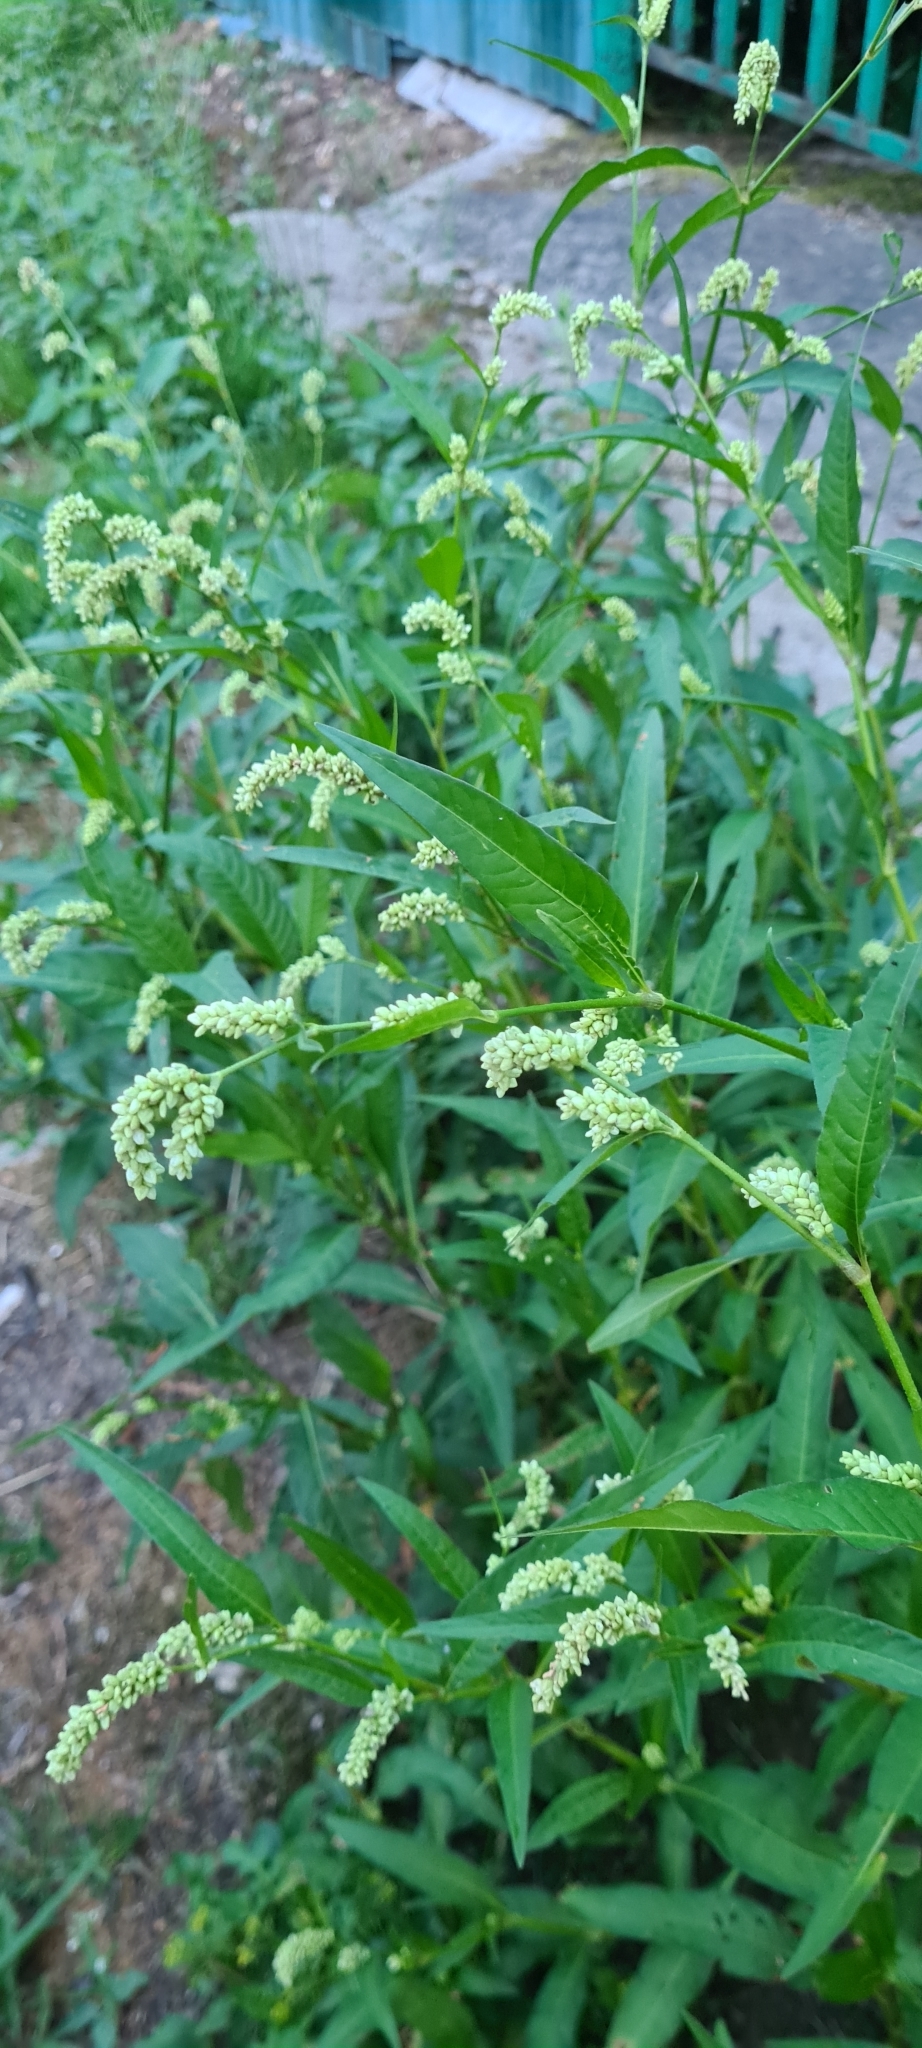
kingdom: Plantae
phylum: Tracheophyta
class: Magnoliopsida
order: Caryophyllales
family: Polygonaceae
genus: Persicaria
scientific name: Persicaria lapathifolia
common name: Curlytop knotweed
